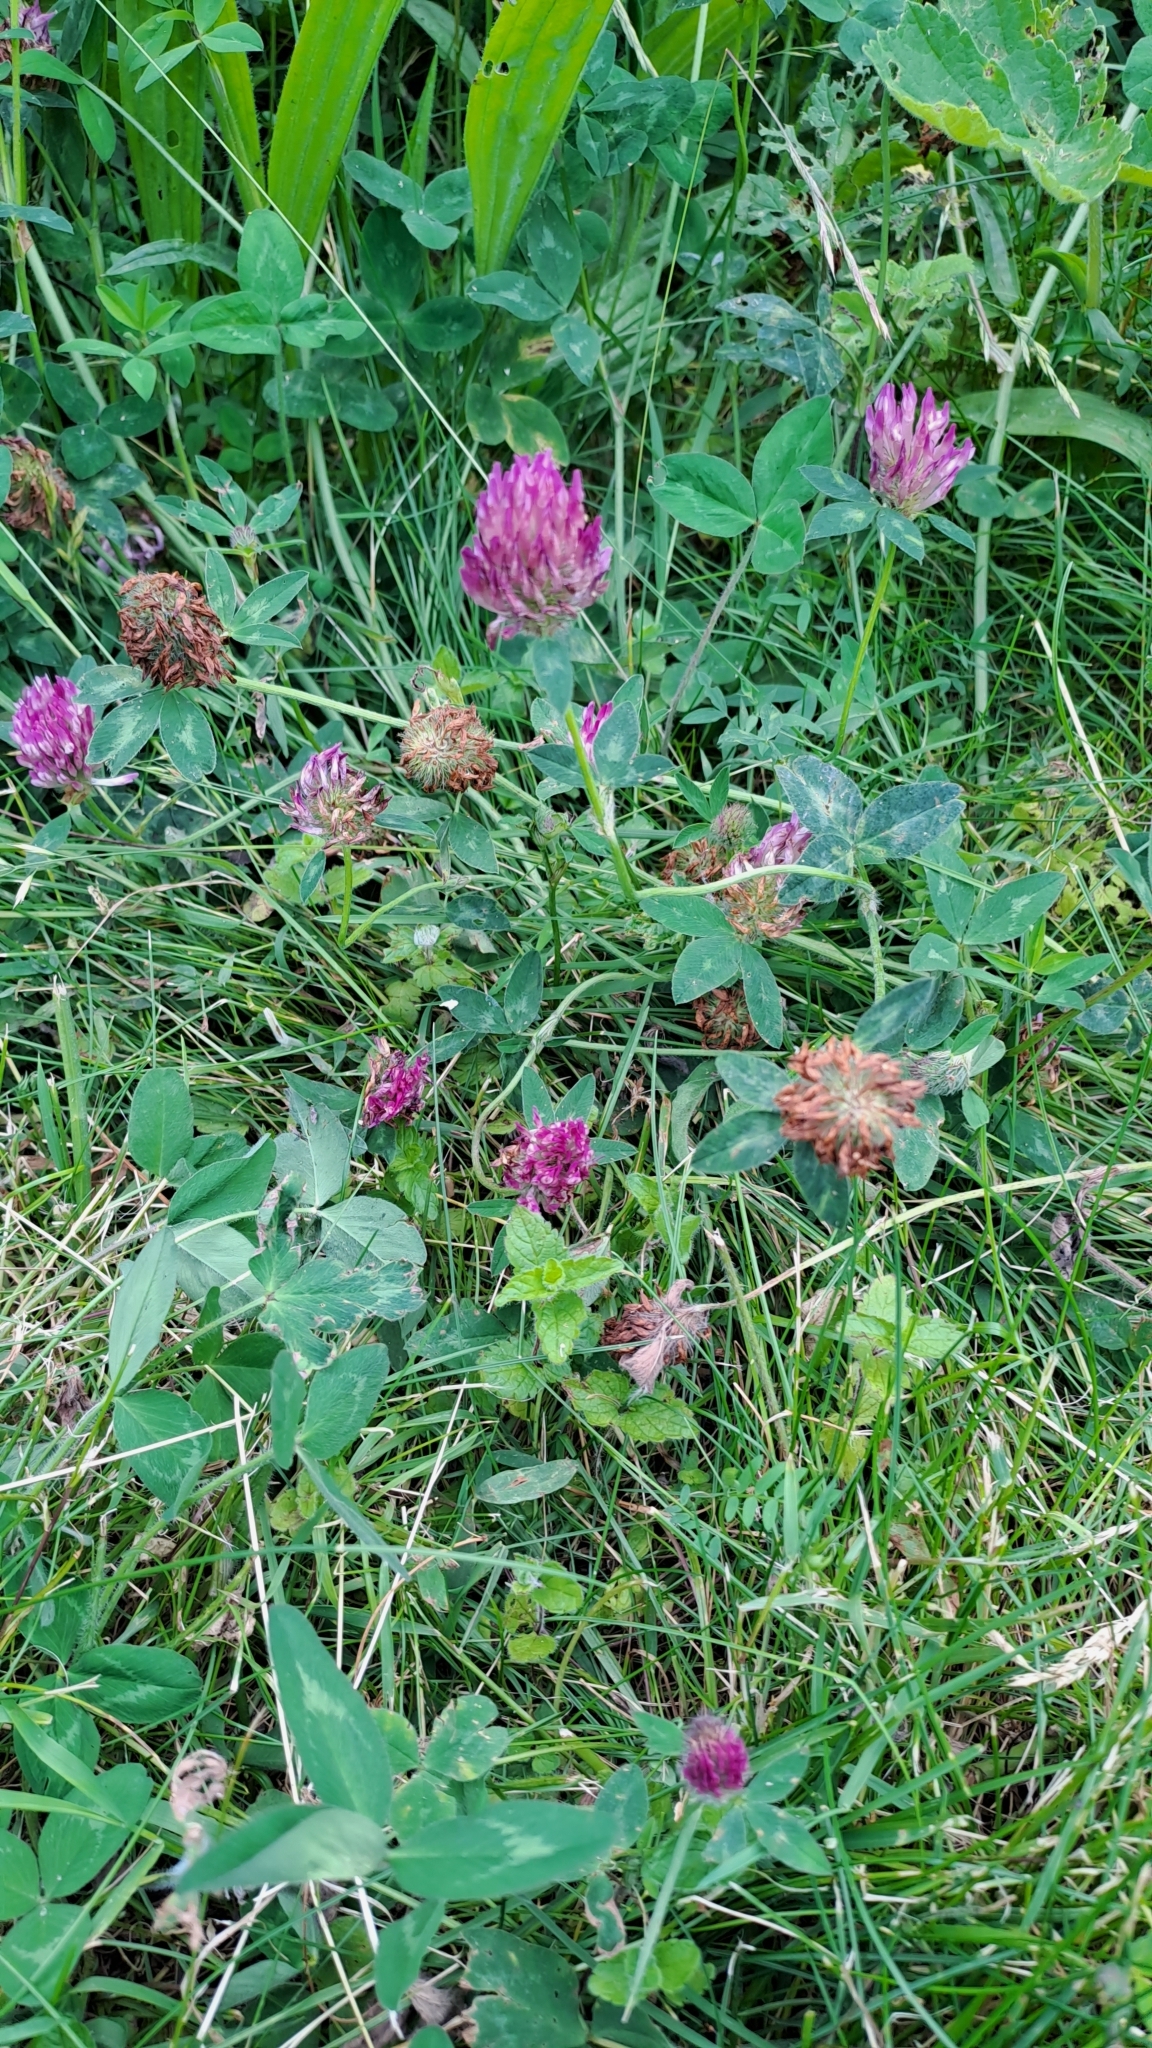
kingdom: Plantae
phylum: Tracheophyta
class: Magnoliopsida
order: Fabales
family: Fabaceae
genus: Trifolium
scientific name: Trifolium pratense
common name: Red clover
